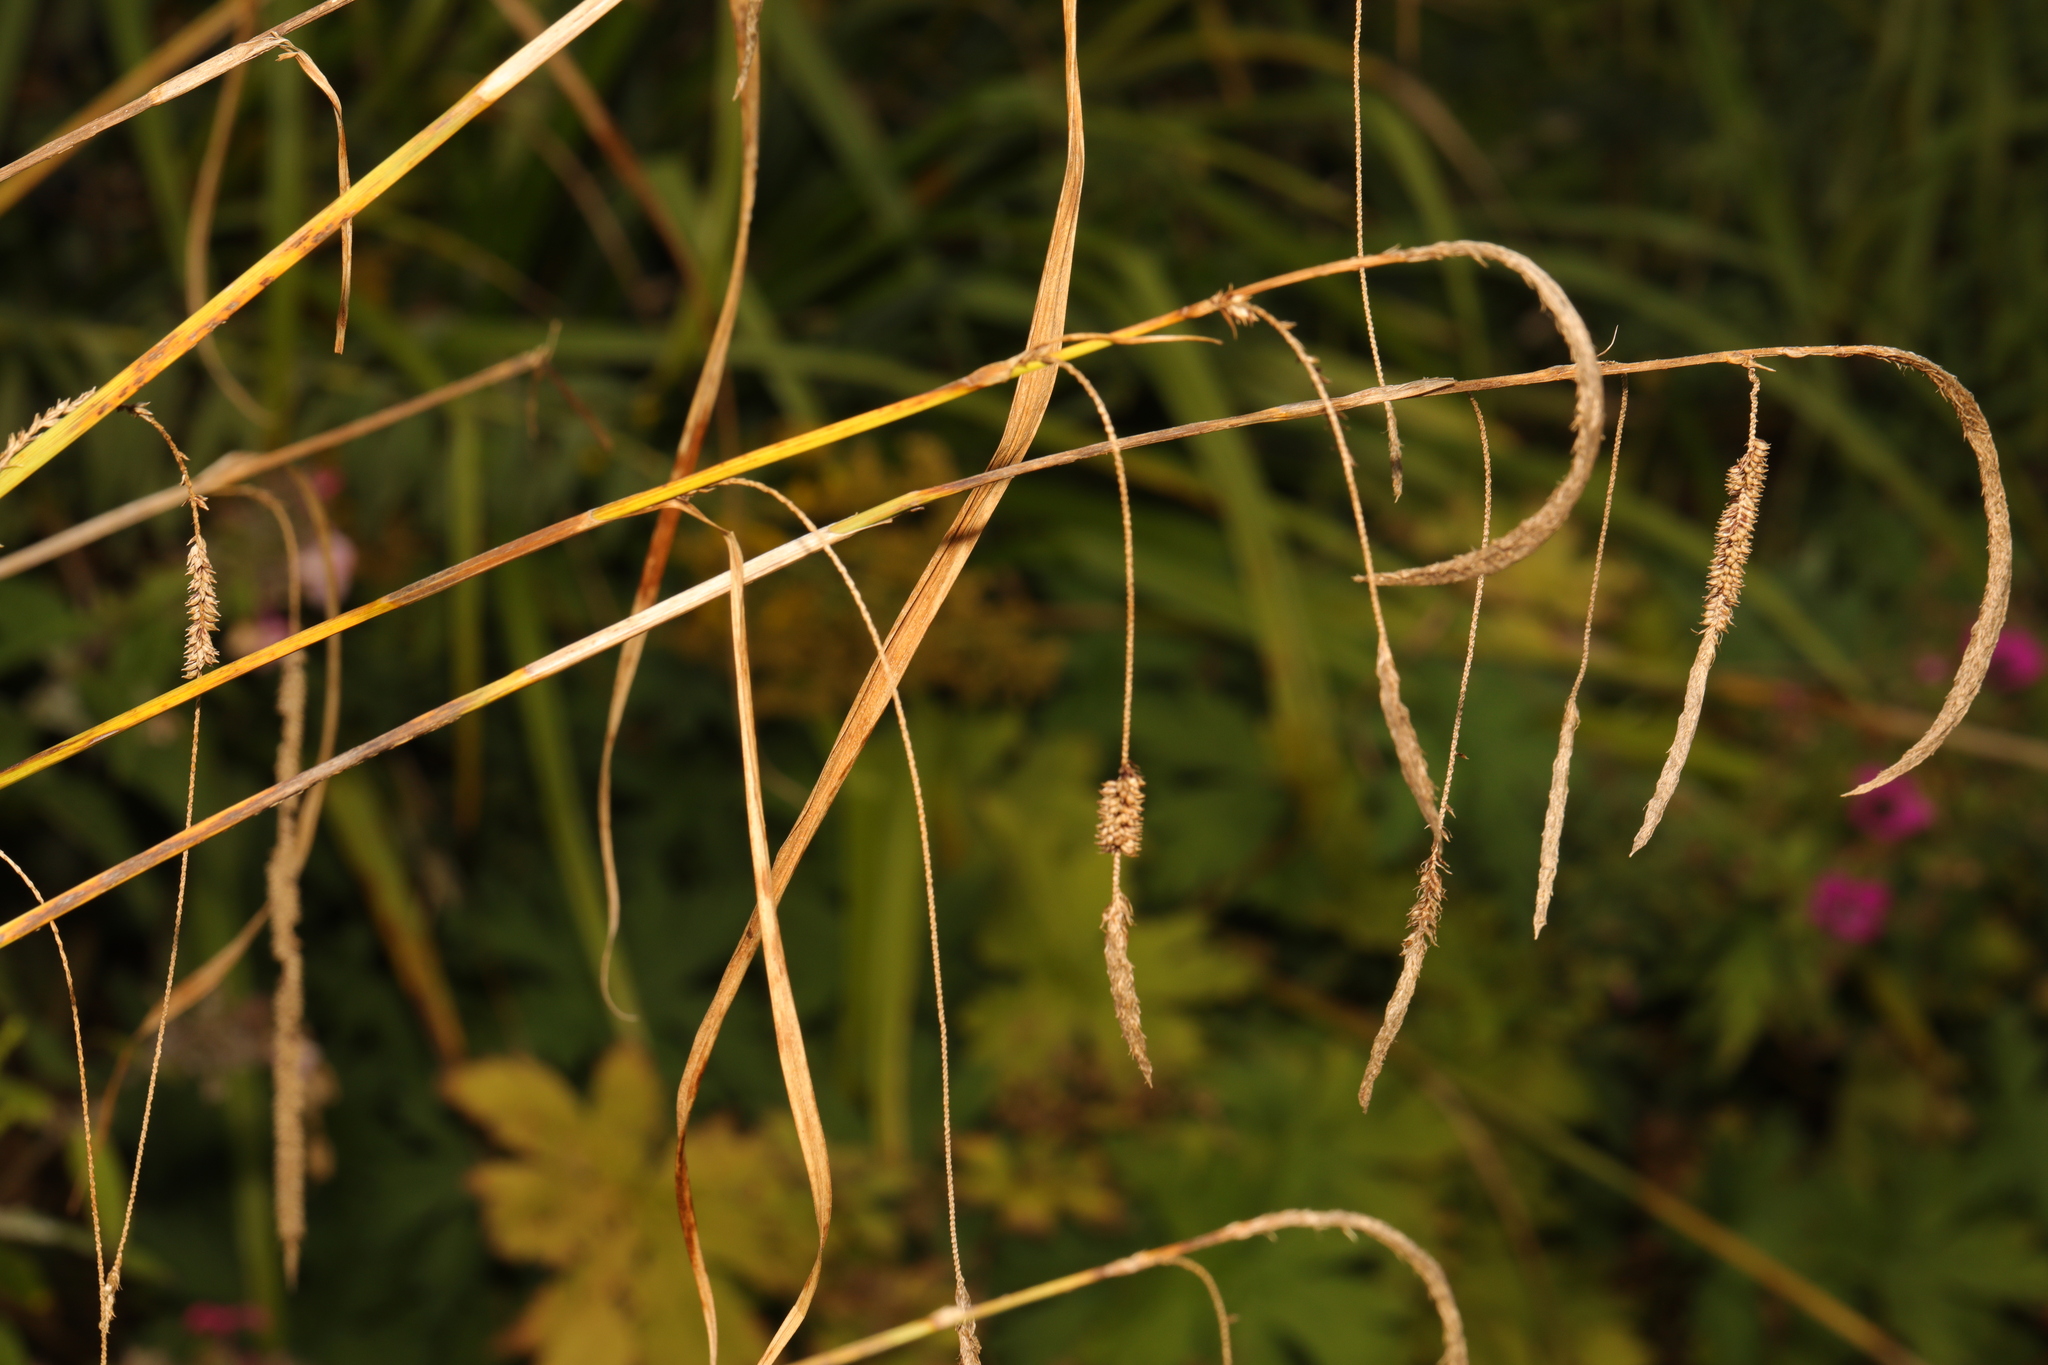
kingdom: Plantae
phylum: Tracheophyta
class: Liliopsida
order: Poales
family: Cyperaceae
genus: Carex
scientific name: Carex pendula
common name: Pendulous sedge
